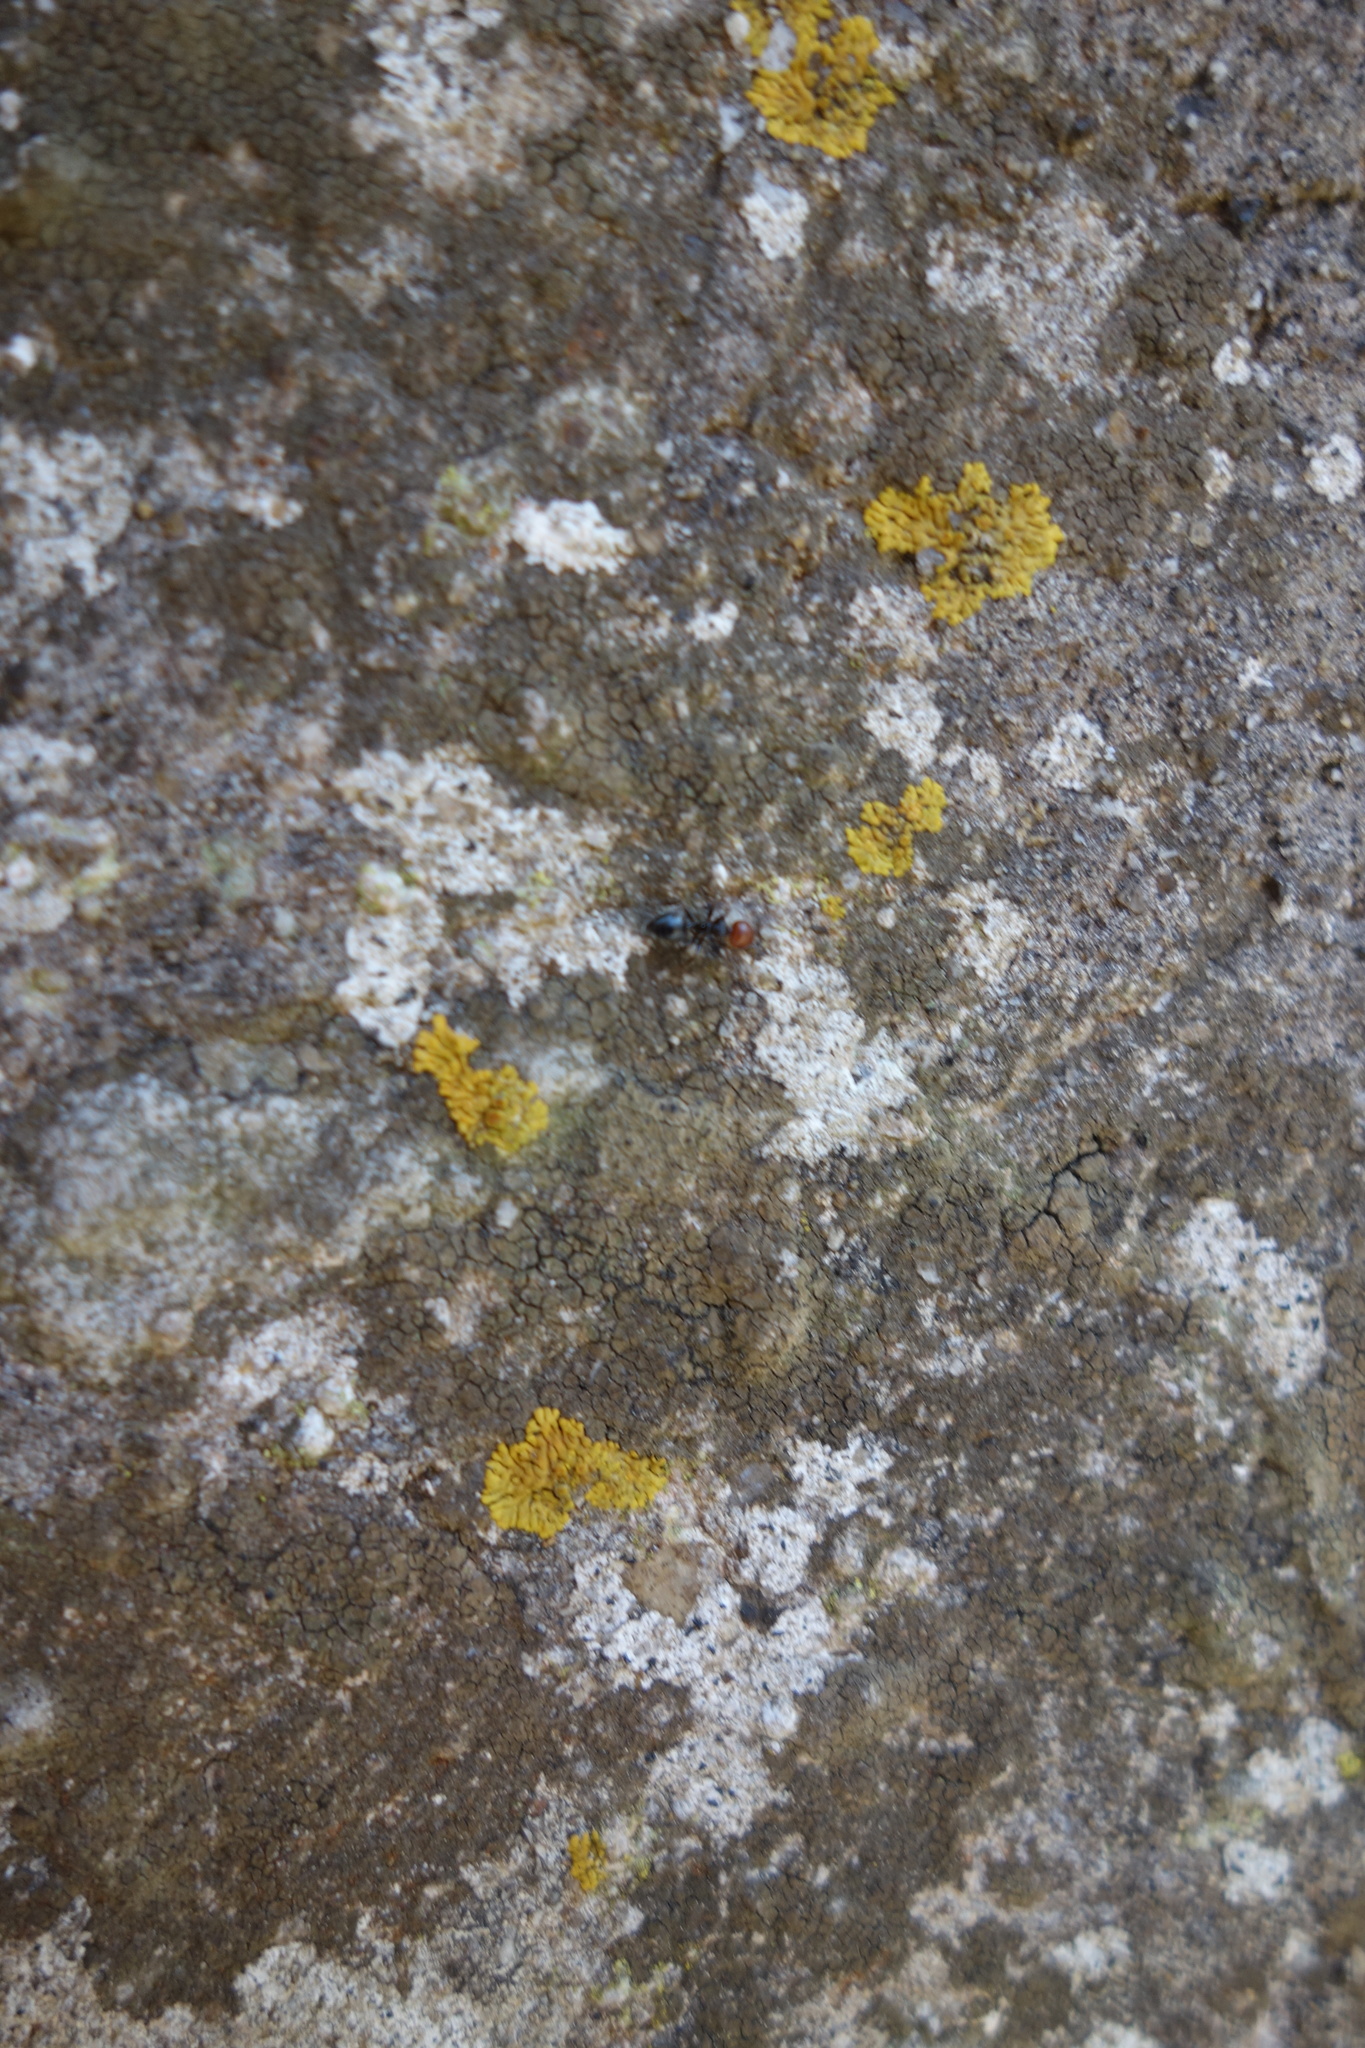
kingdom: Animalia
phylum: Arthropoda
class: Insecta
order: Hymenoptera
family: Formicidae
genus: Crematogaster
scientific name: Crematogaster scutellaris
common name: Fourmi du liège
